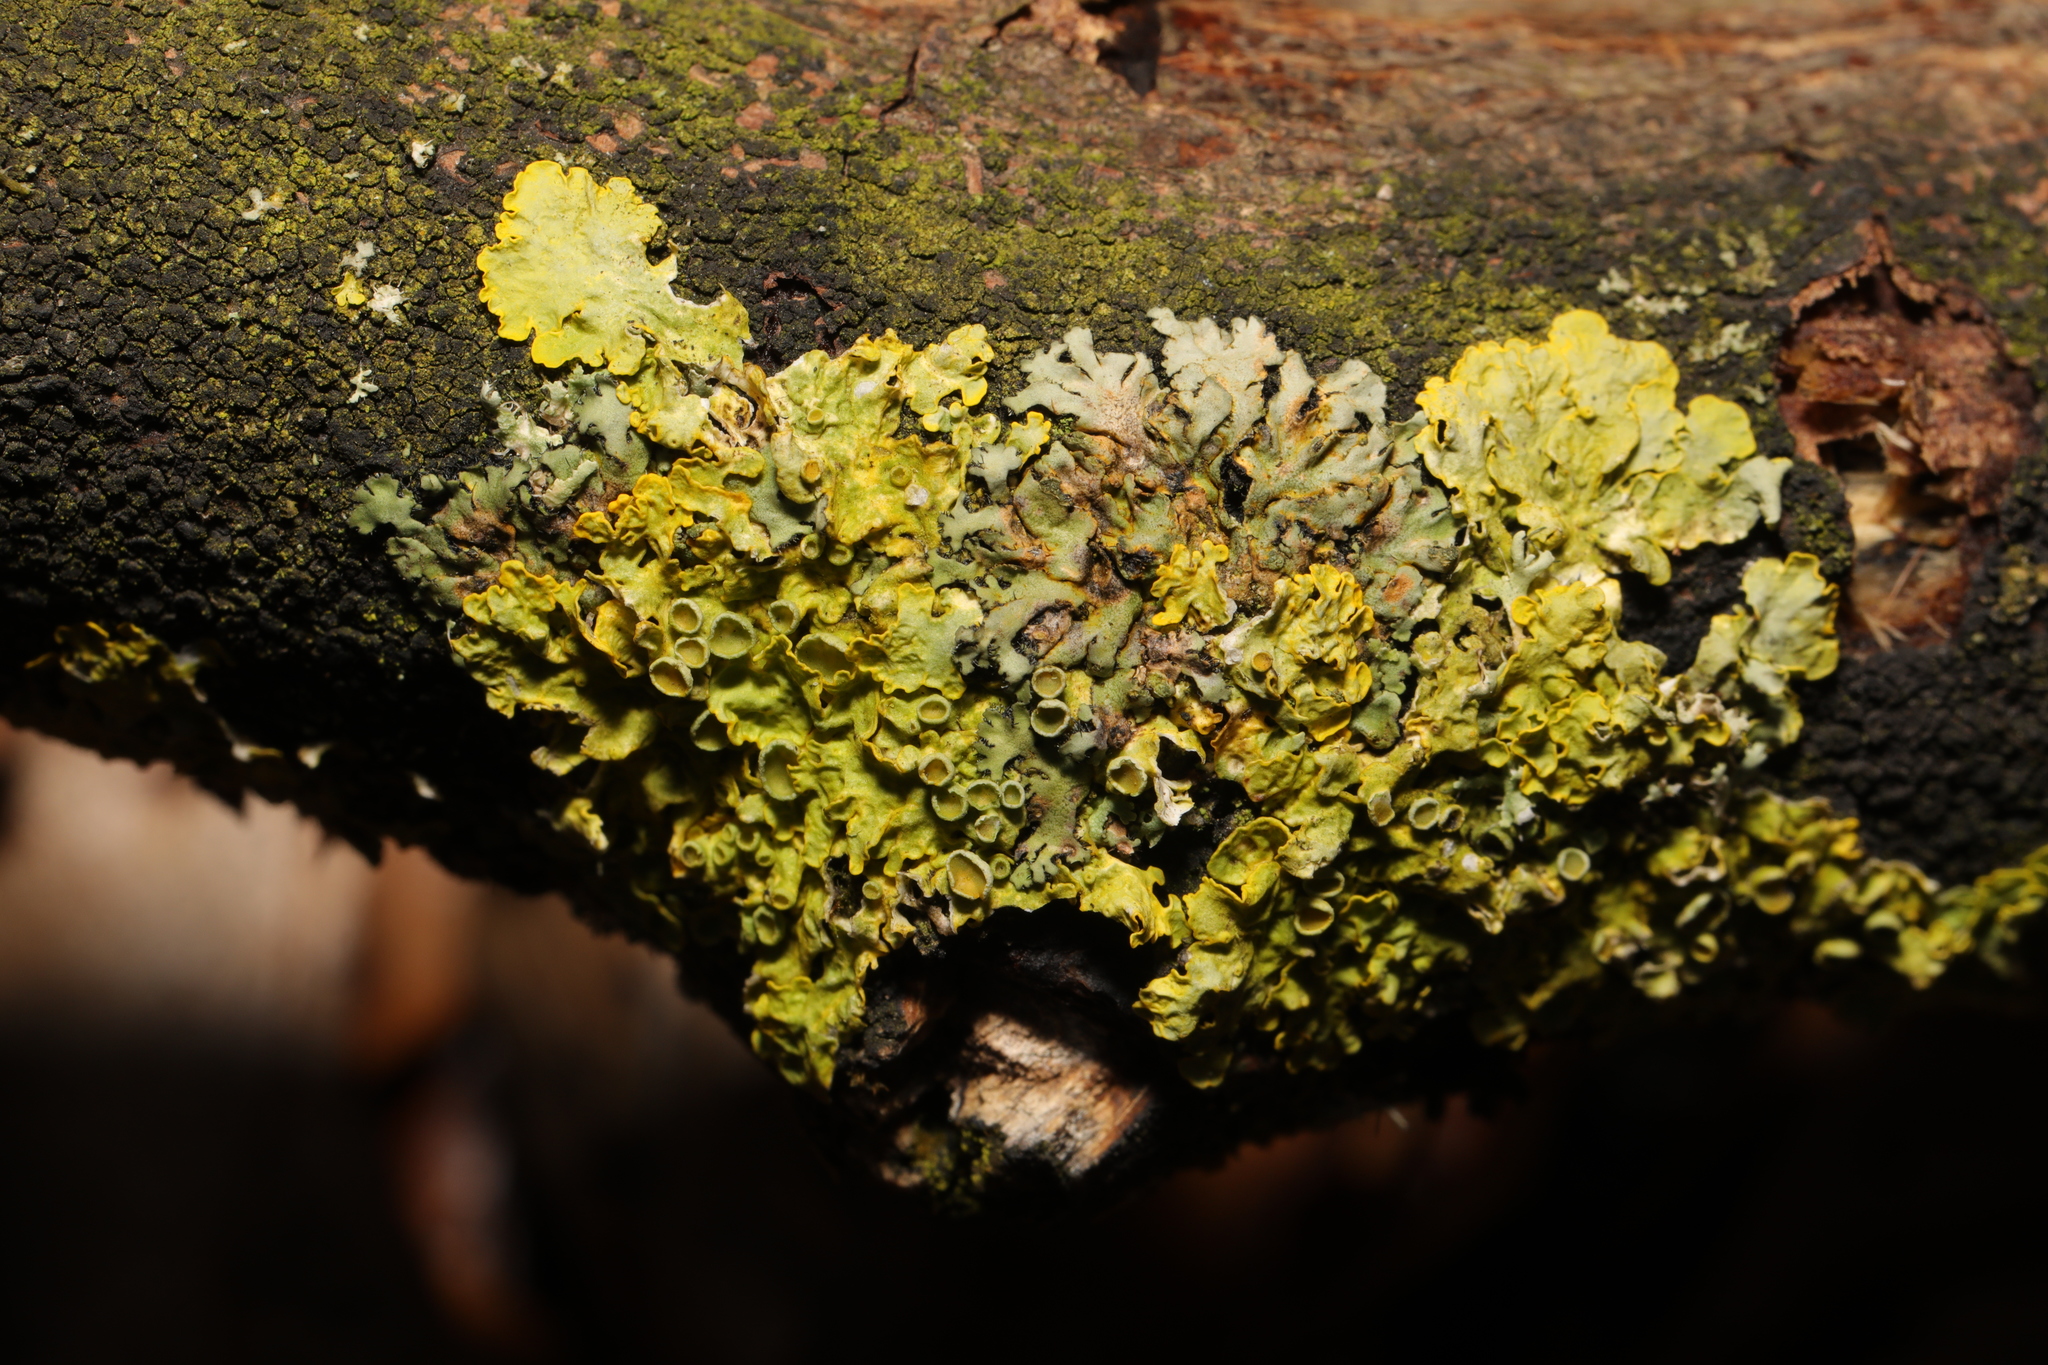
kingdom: Fungi
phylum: Ascomycota
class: Lecanoromycetes
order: Teloschistales
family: Teloschistaceae
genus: Xanthoria
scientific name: Xanthoria parietina
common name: Common orange lichen
